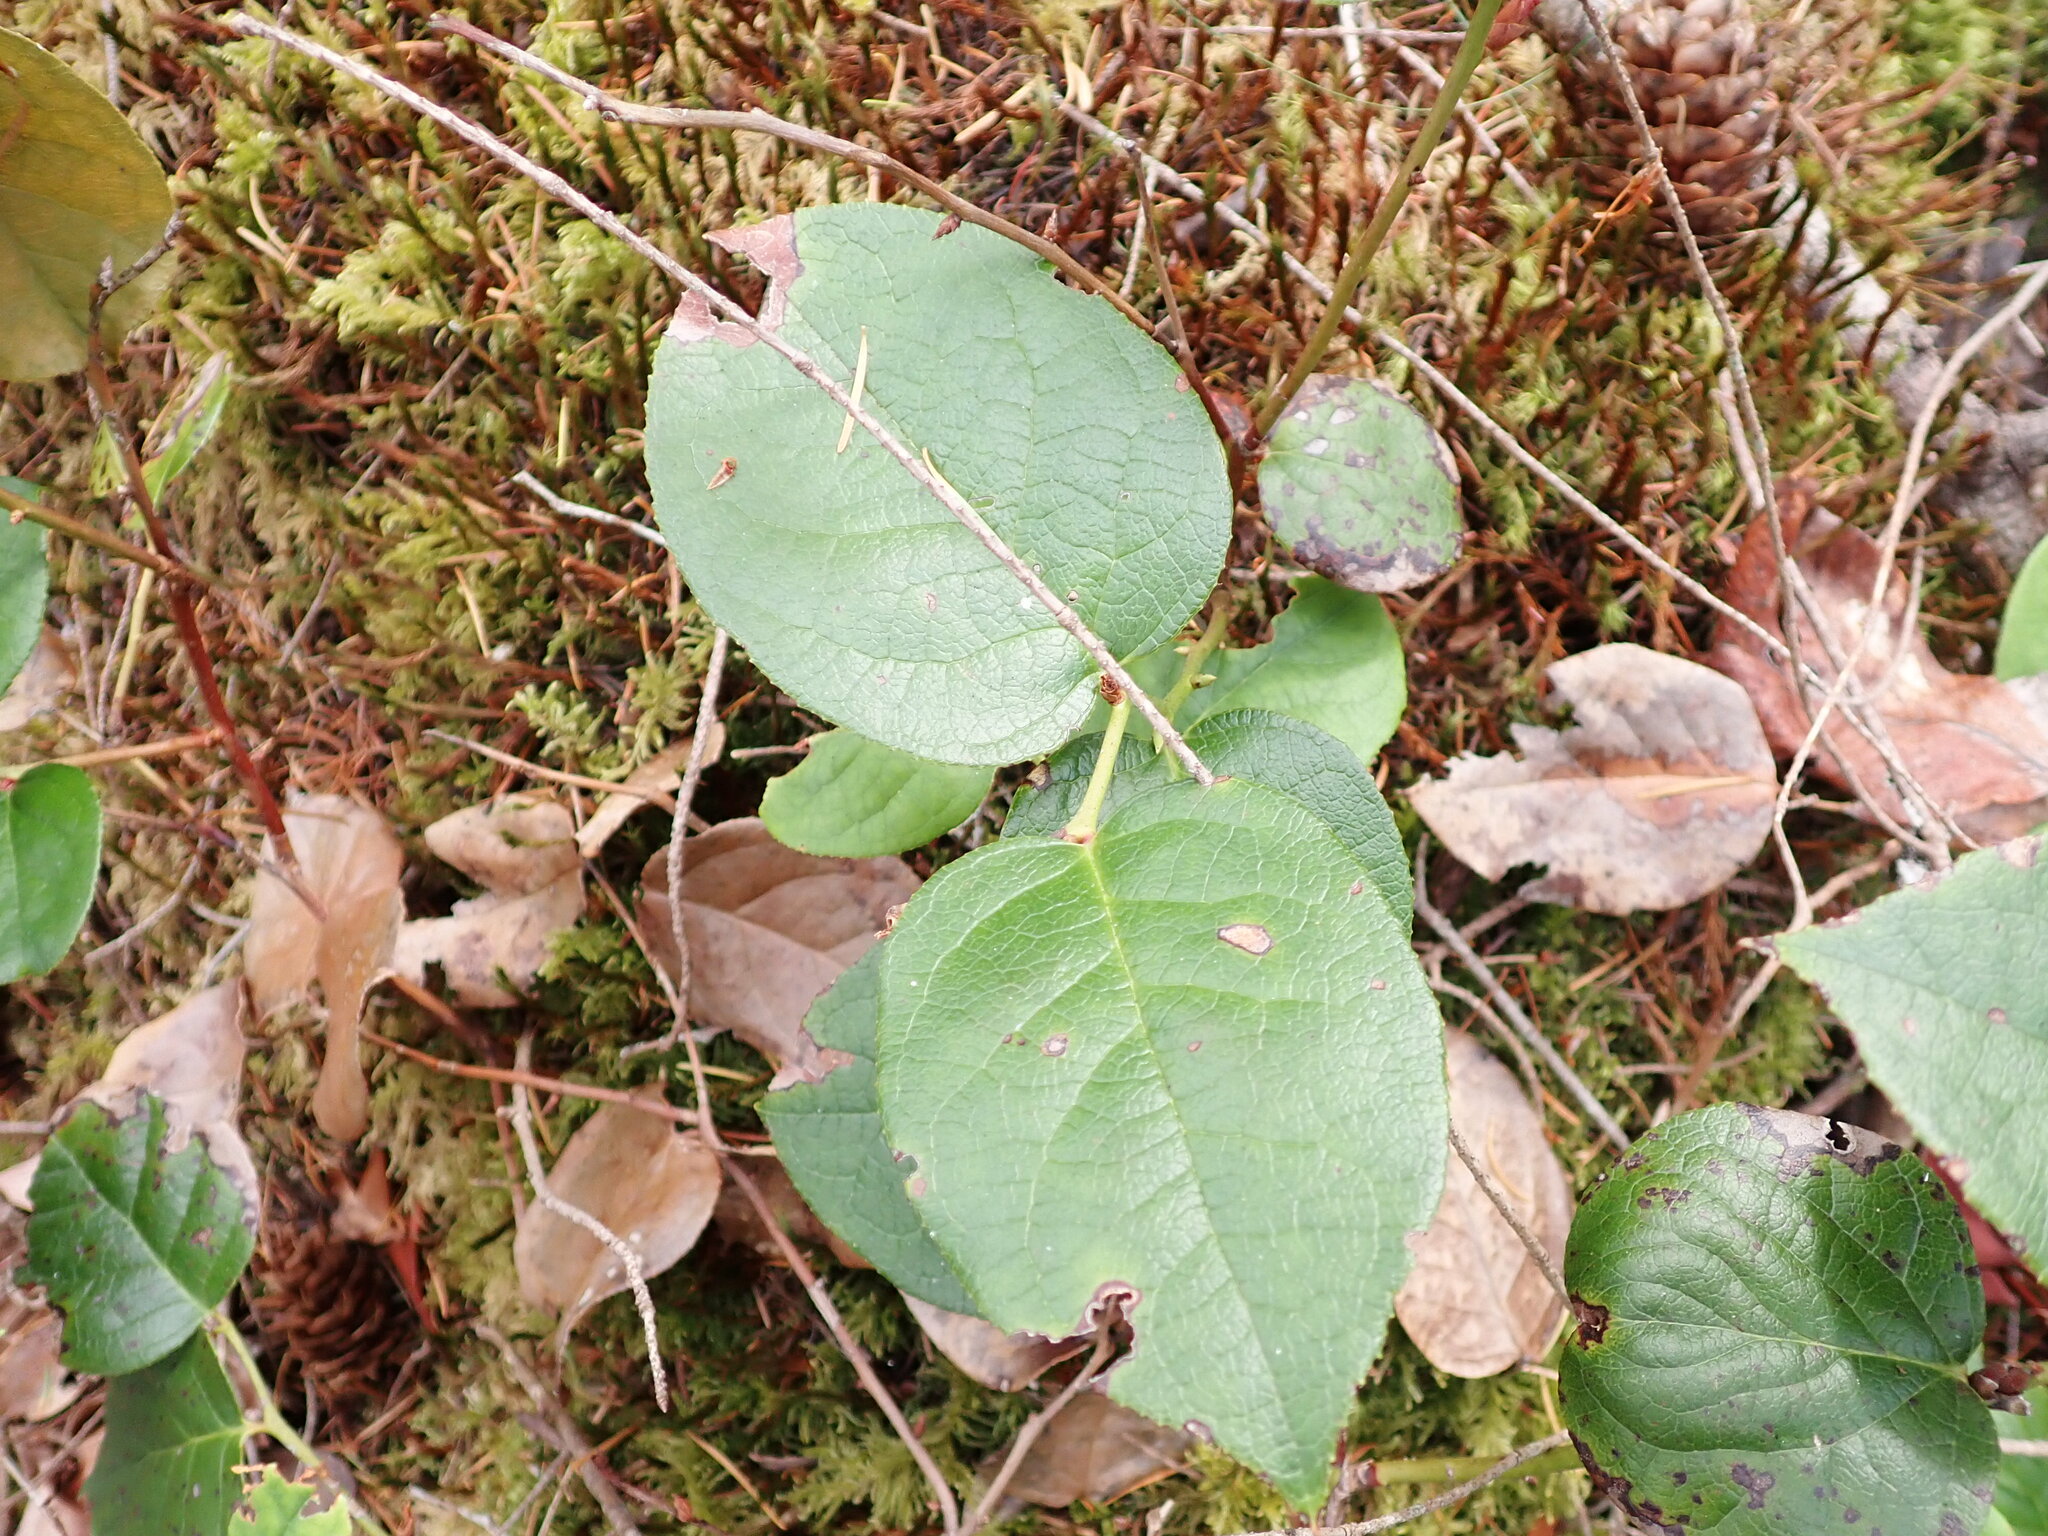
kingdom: Plantae
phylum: Tracheophyta
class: Magnoliopsida
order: Ericales
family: Ericaceae
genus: Gaultheria
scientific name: Gaultheria shallon
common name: Shallon
